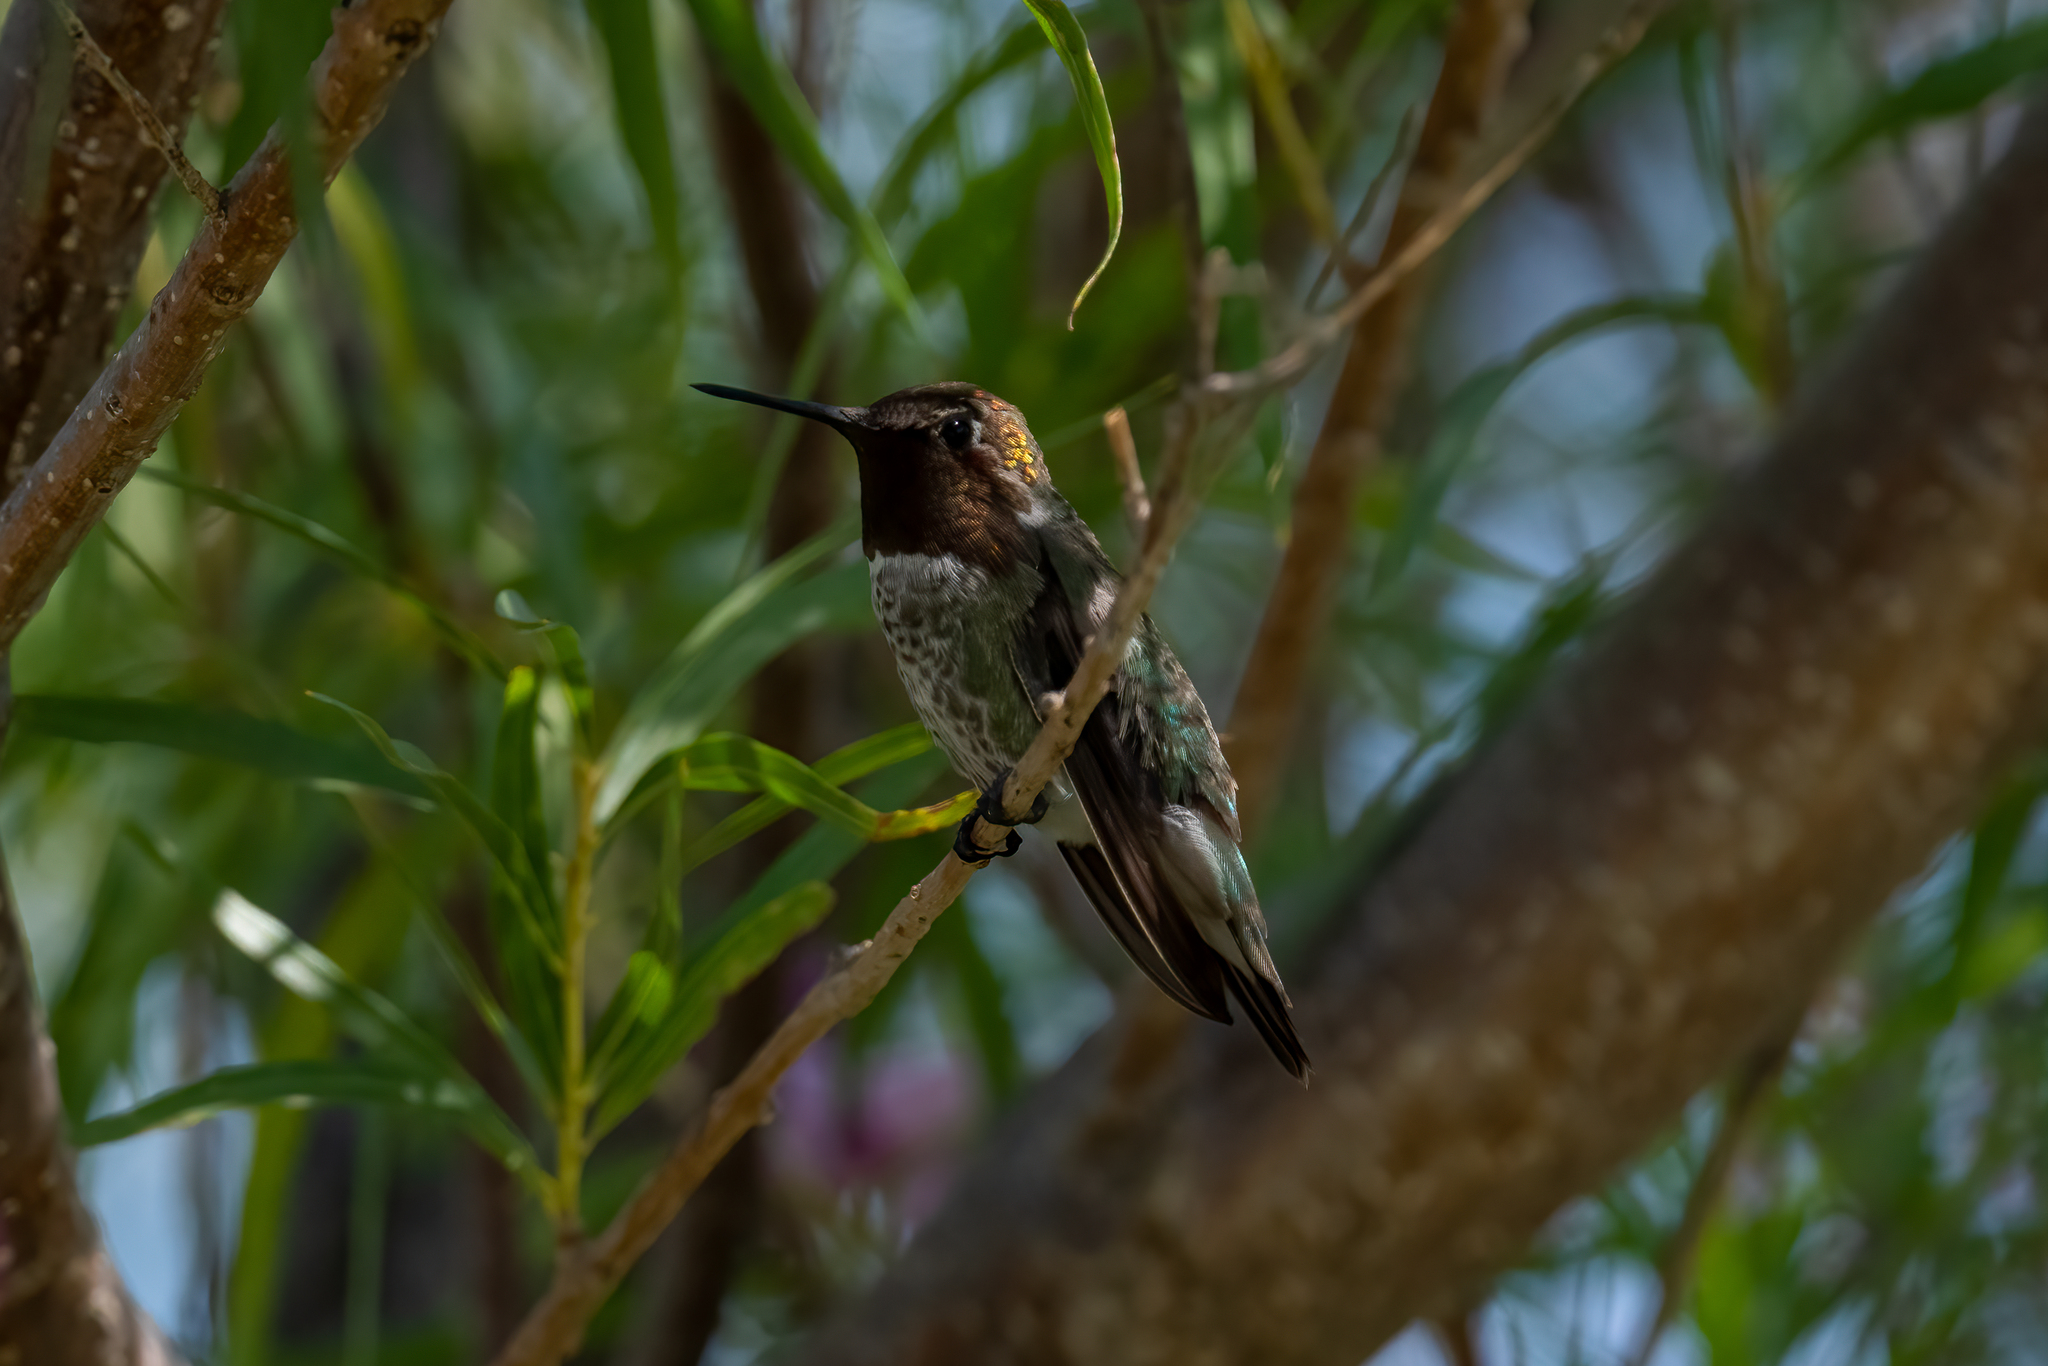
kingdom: Animalia
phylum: Chordata
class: Aves
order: Apodiformes
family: Trochilidae
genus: Calypte
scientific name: Calypte anna
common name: Anna's hummingbird
